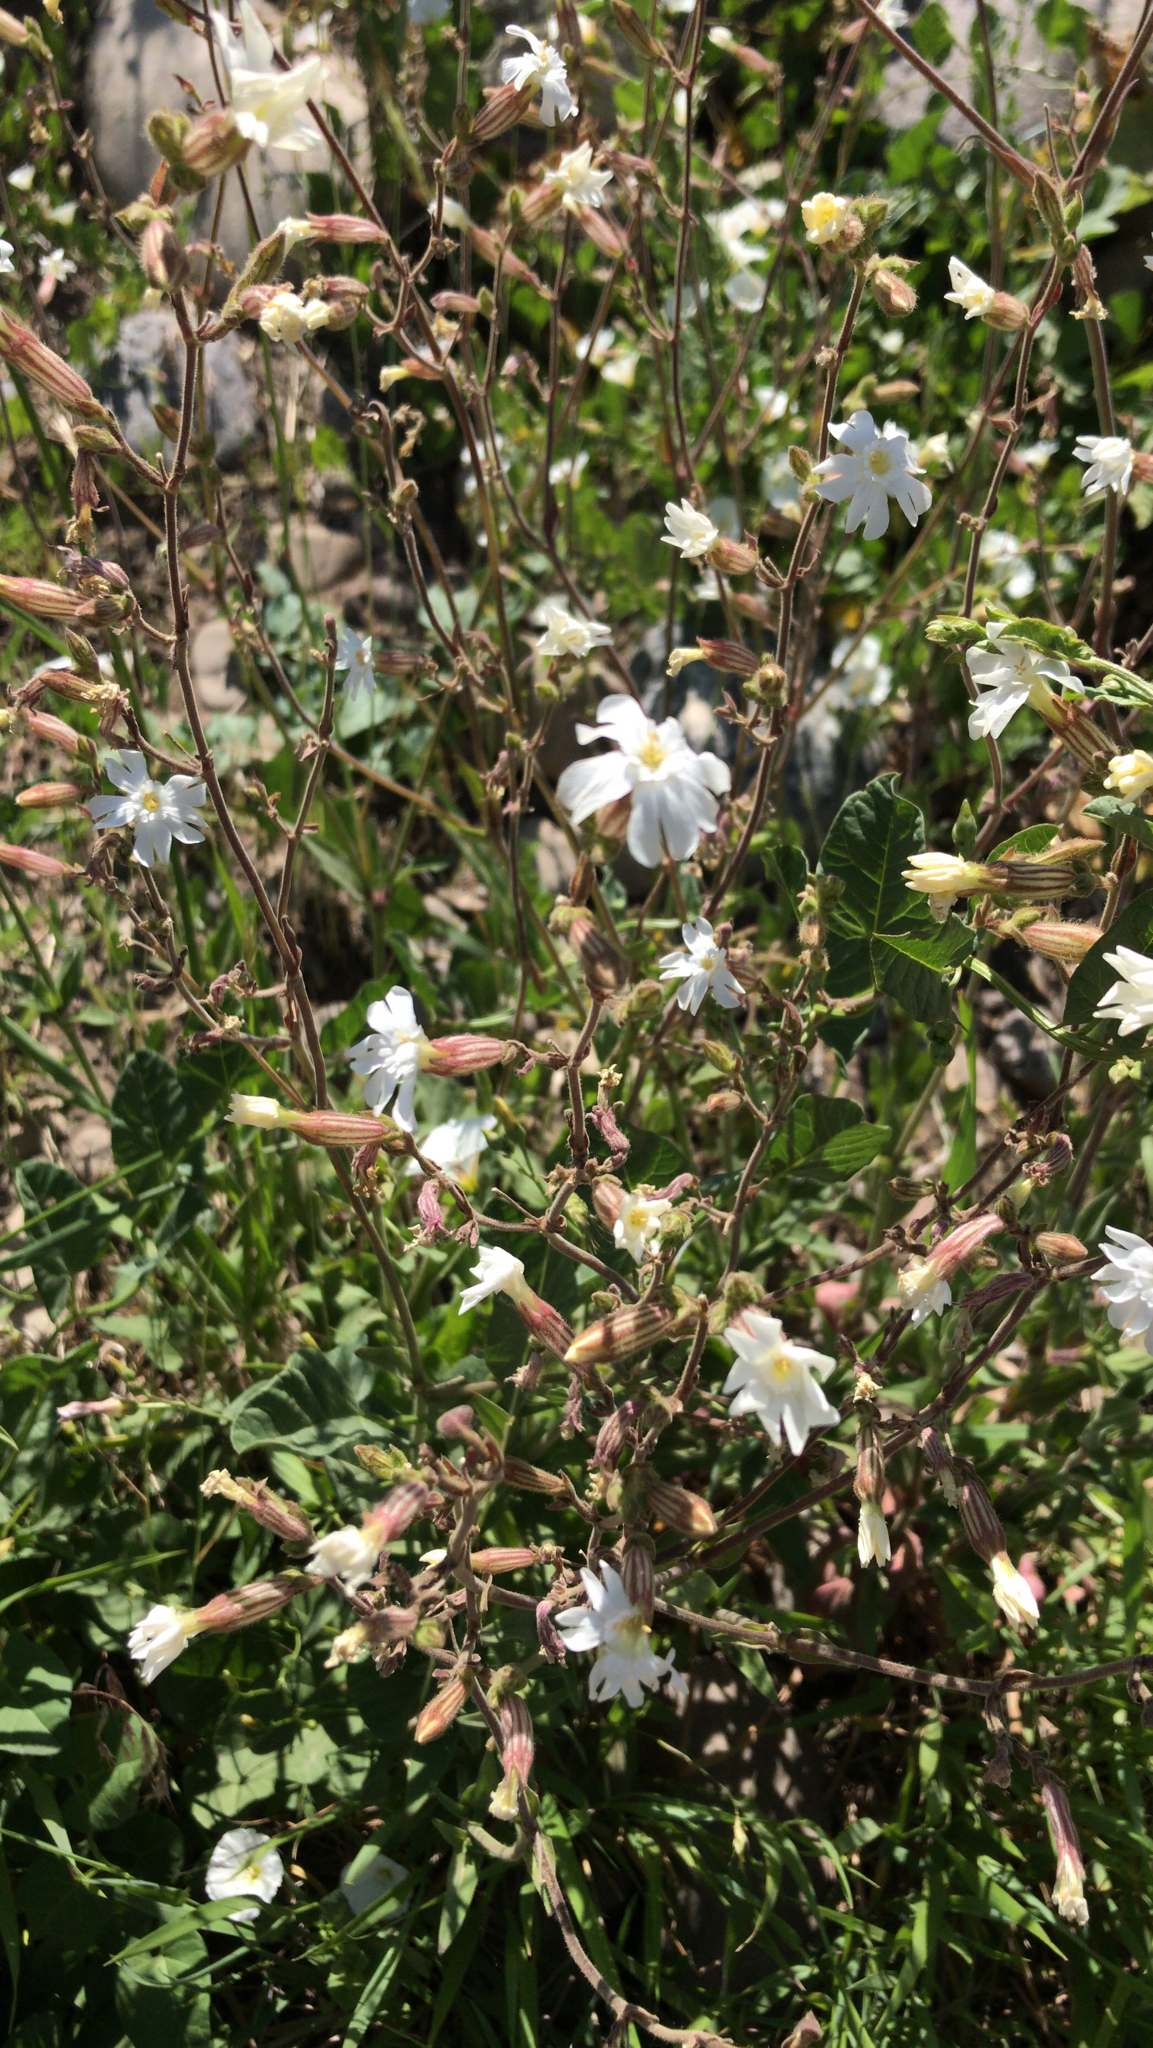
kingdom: Plantae
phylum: Tracheophyta
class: Magnoliopsida
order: Caryophyllales
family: Caryophyllaceae
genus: Silene
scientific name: Silene latifolia
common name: White campion
